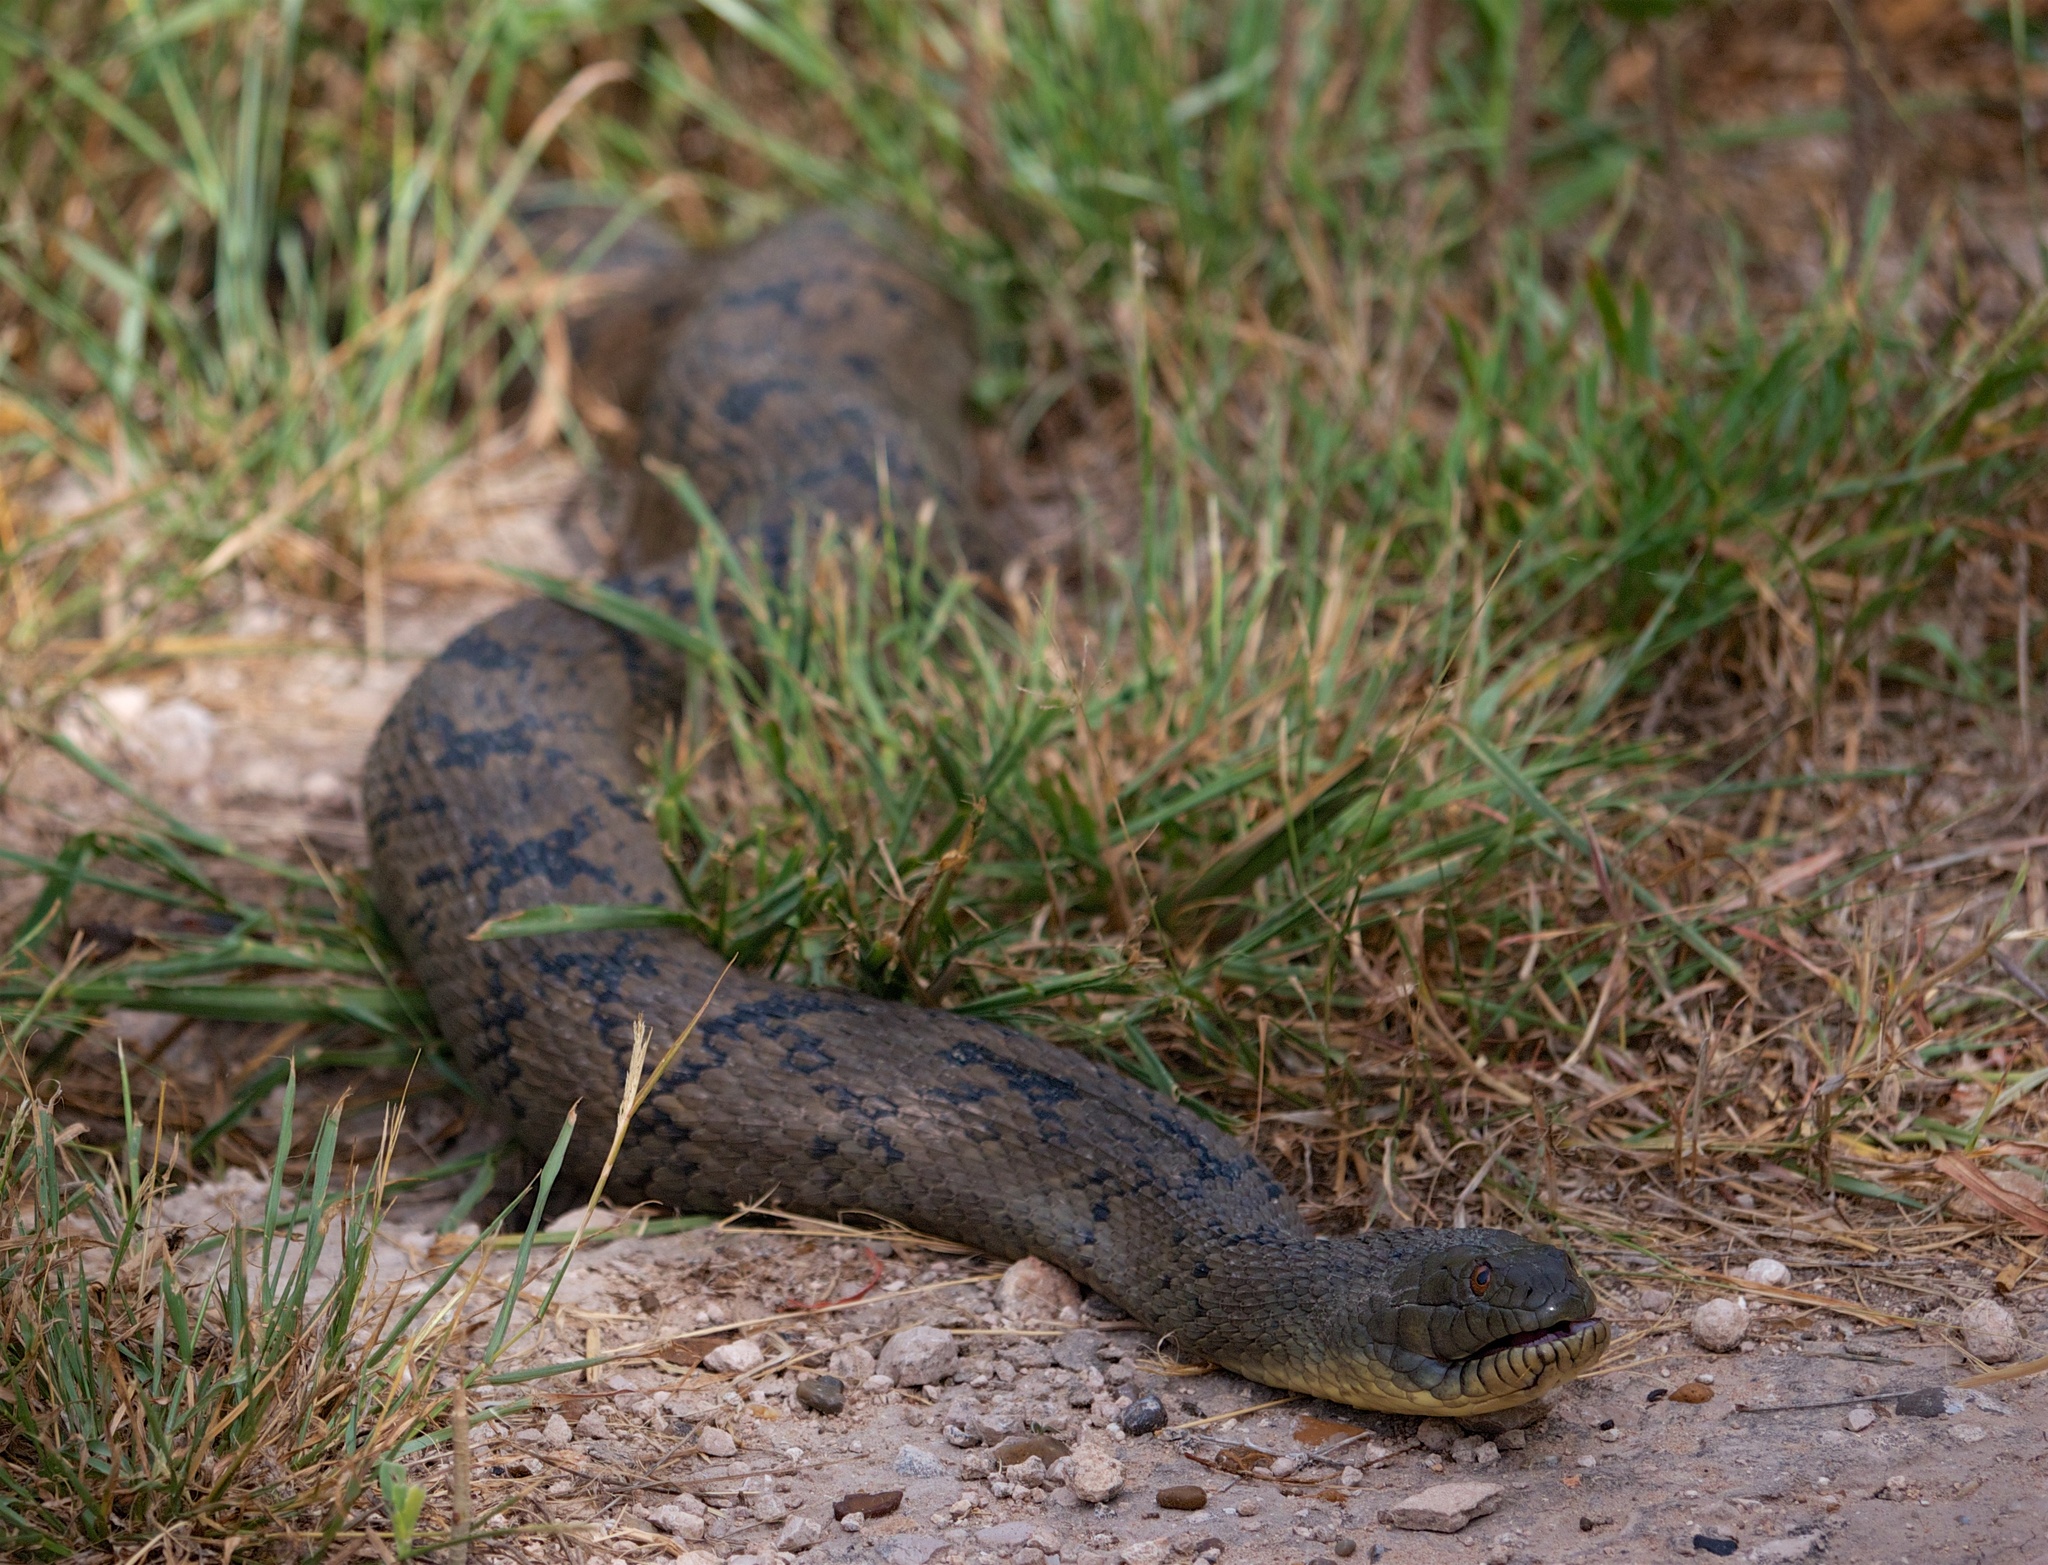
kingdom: Animalia
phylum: Chordata
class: Squamata
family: Colubridae
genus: Nerodia
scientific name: Nerodia rhombifer
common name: Diamondback water snake
